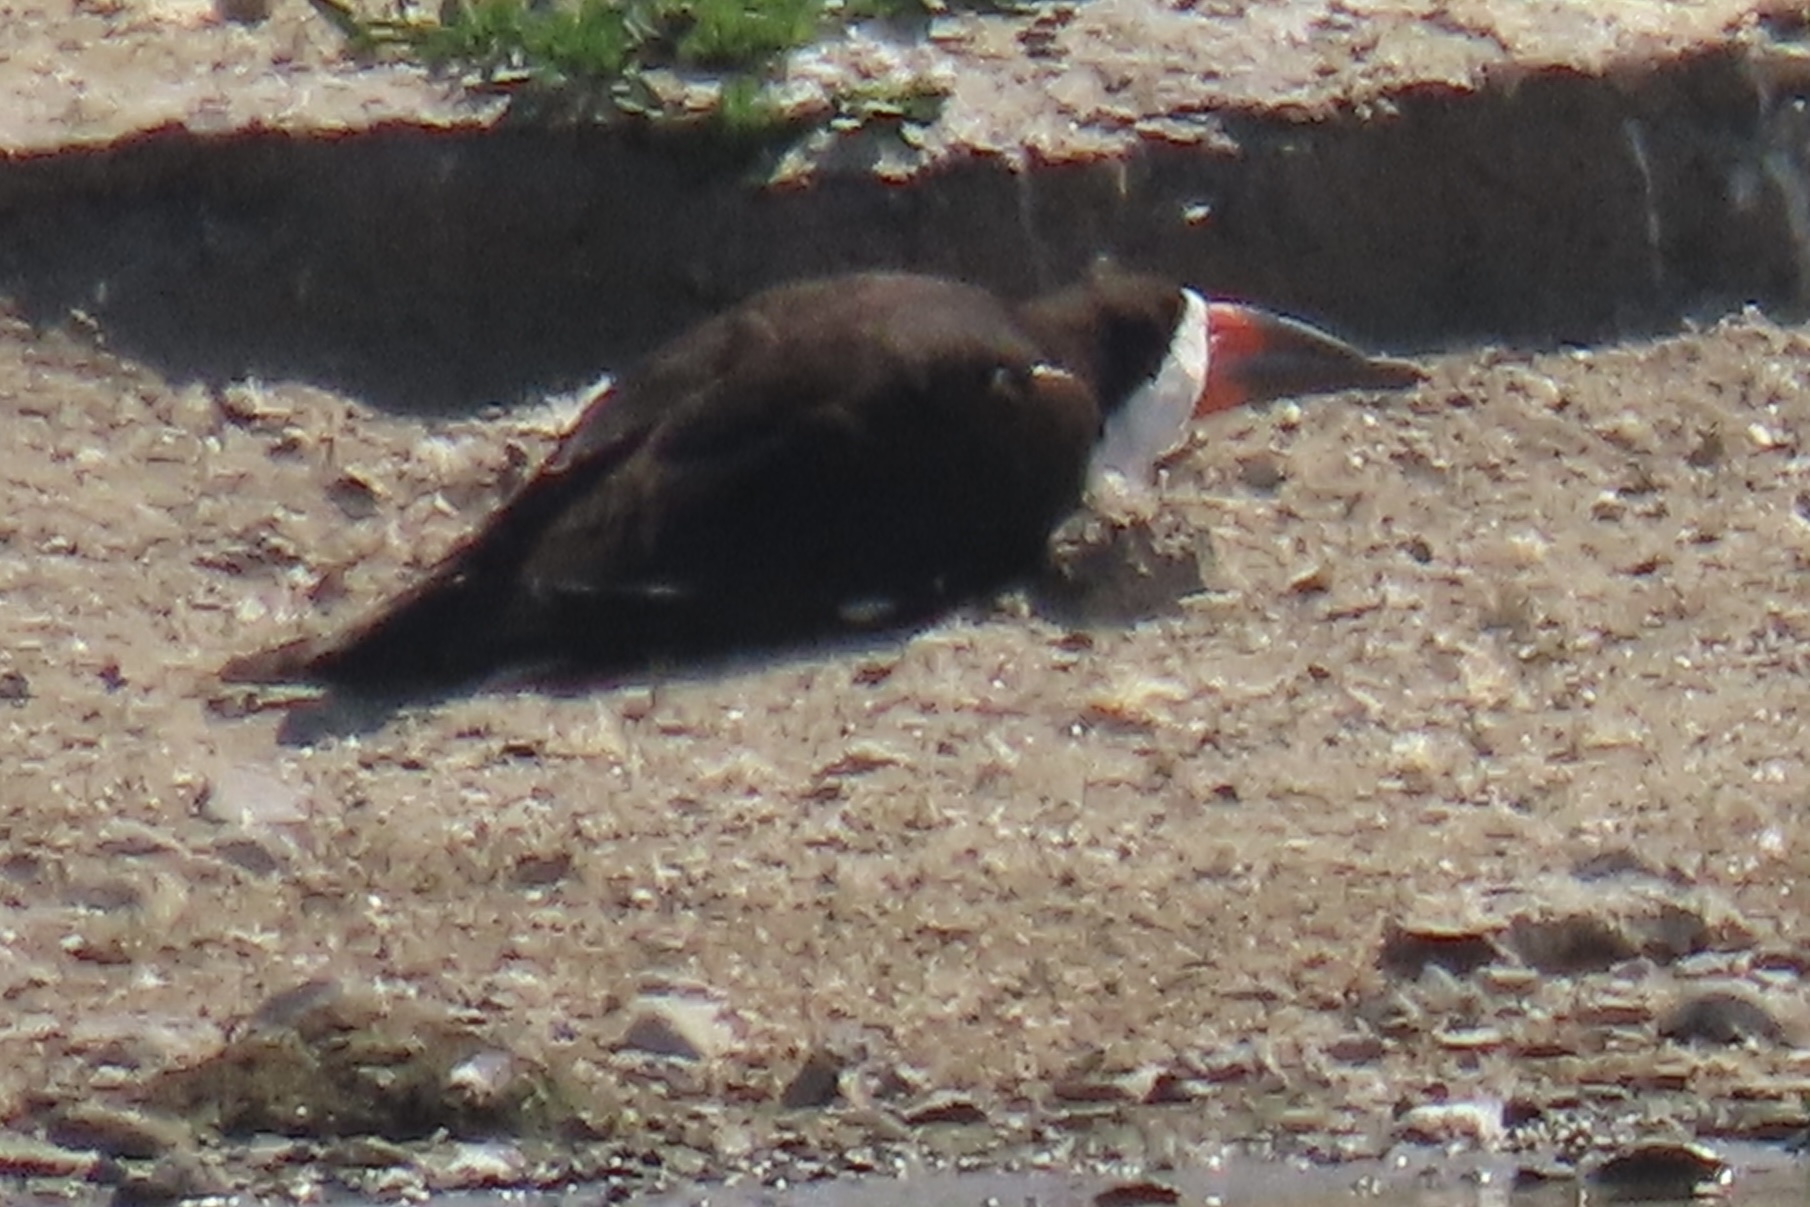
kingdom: Animalia
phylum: Chordata
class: Aves
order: Charadriiformes
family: Laridae
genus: Rynchops
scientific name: Rynchops niger
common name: Black skimmer
